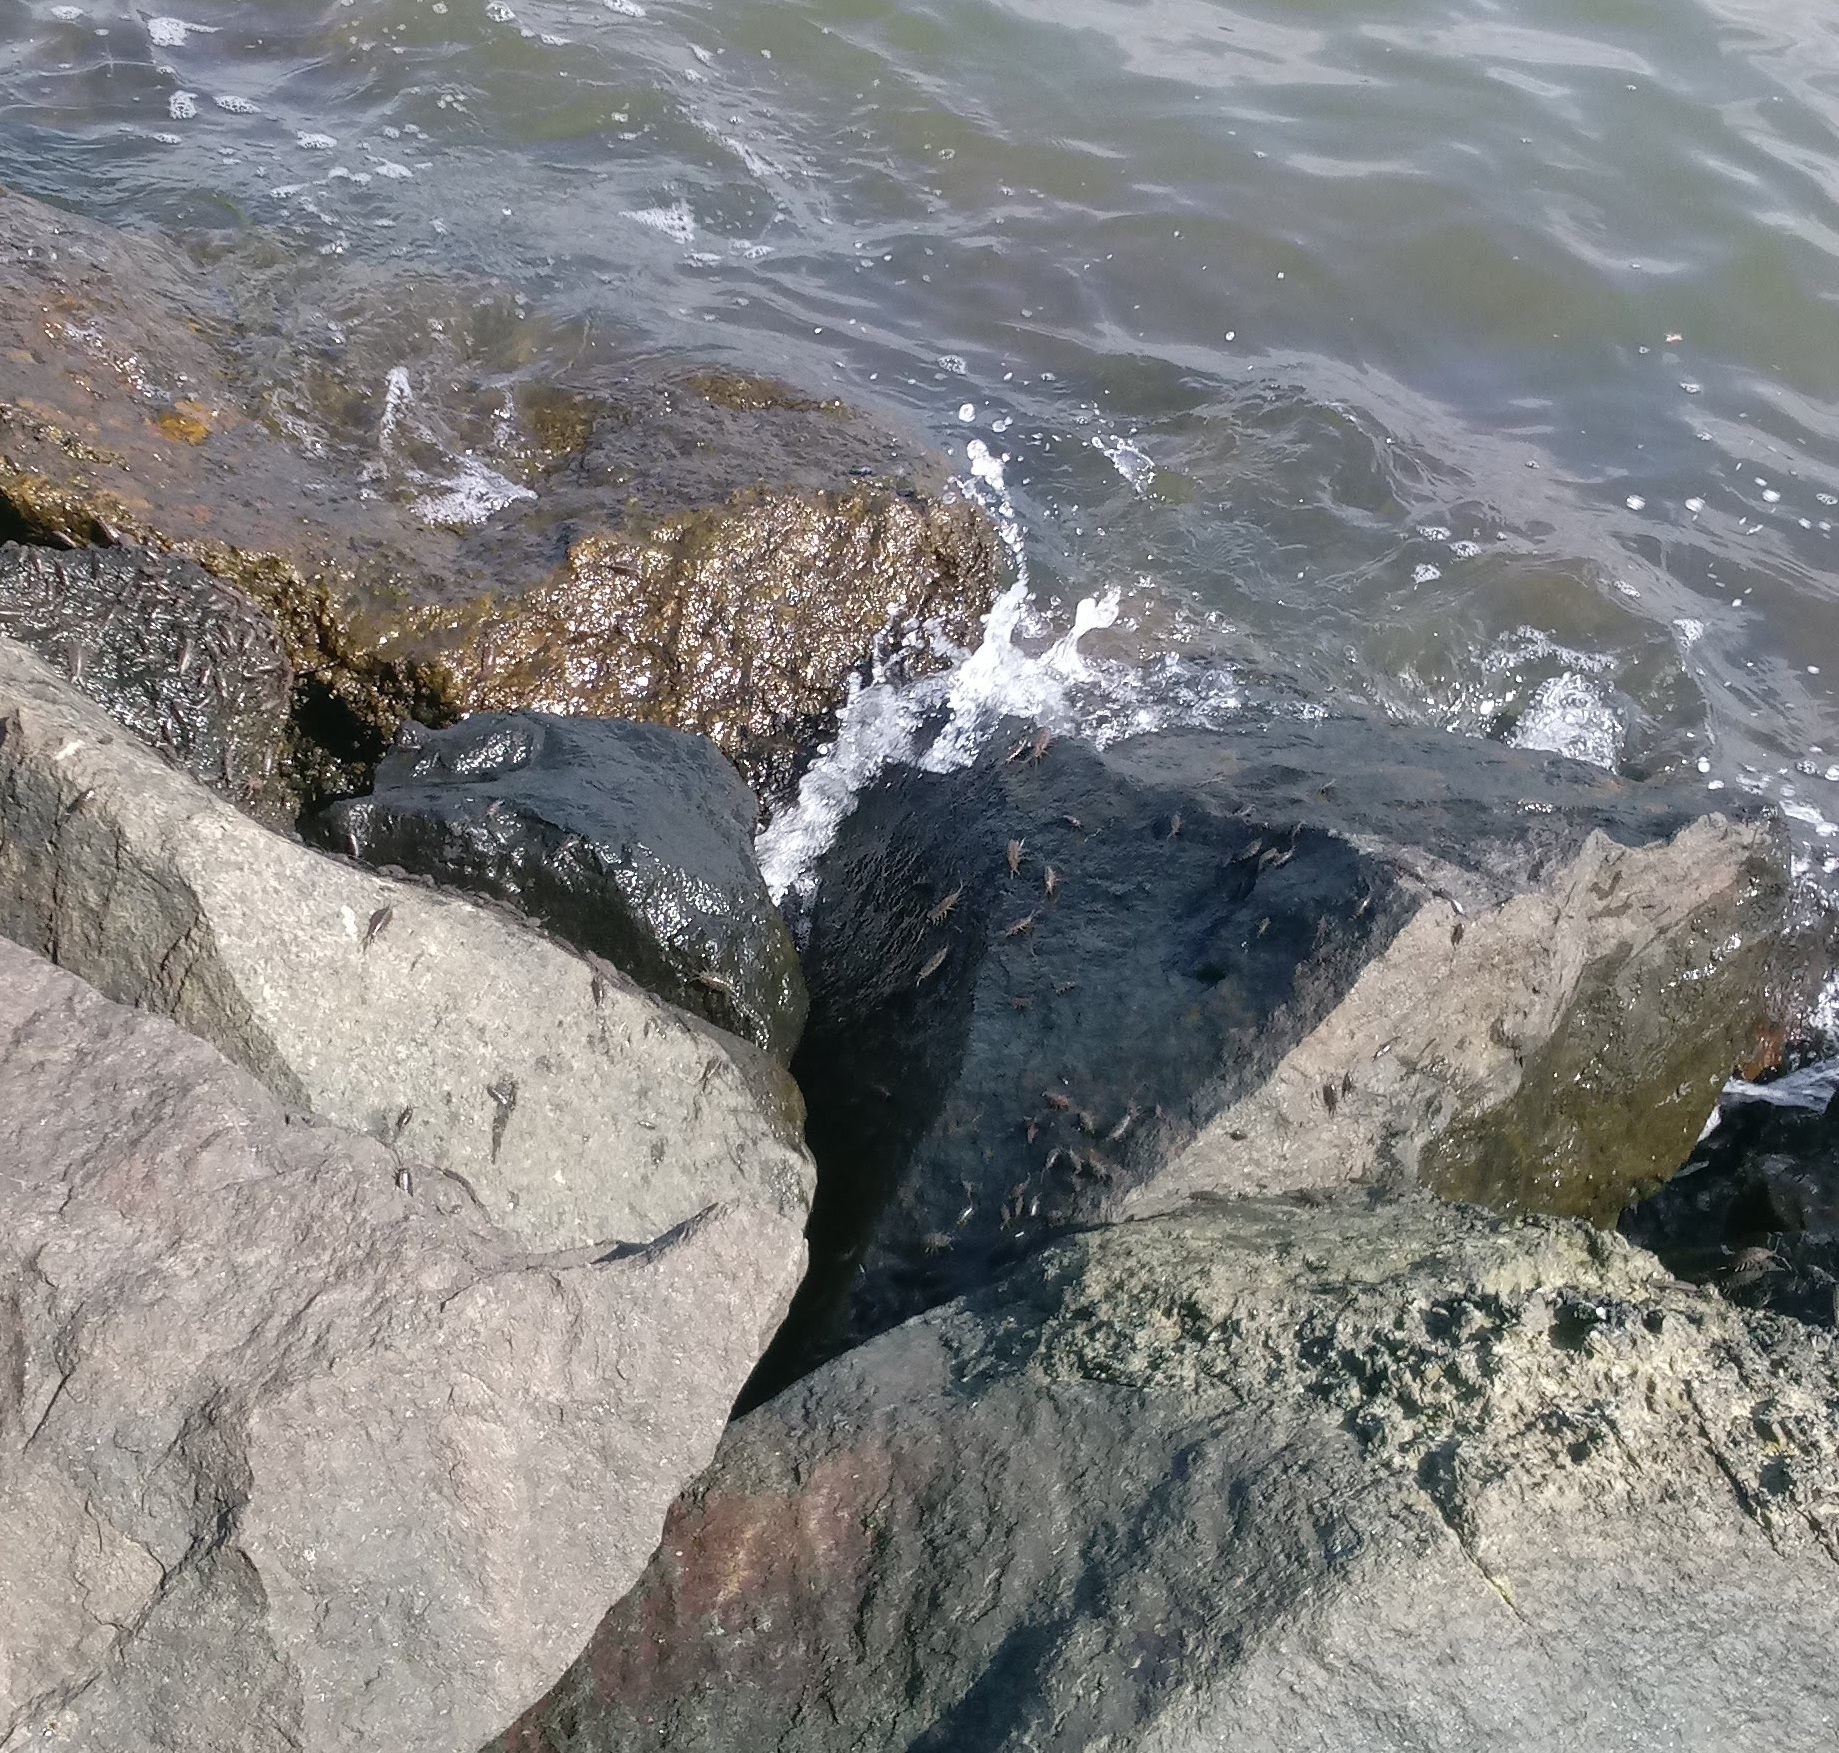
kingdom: Animalia
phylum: Arthropoda
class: Malacostraca
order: Isopoda
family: Ligiidae
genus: Ligia
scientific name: Ligia exotica
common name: Wharf roach
